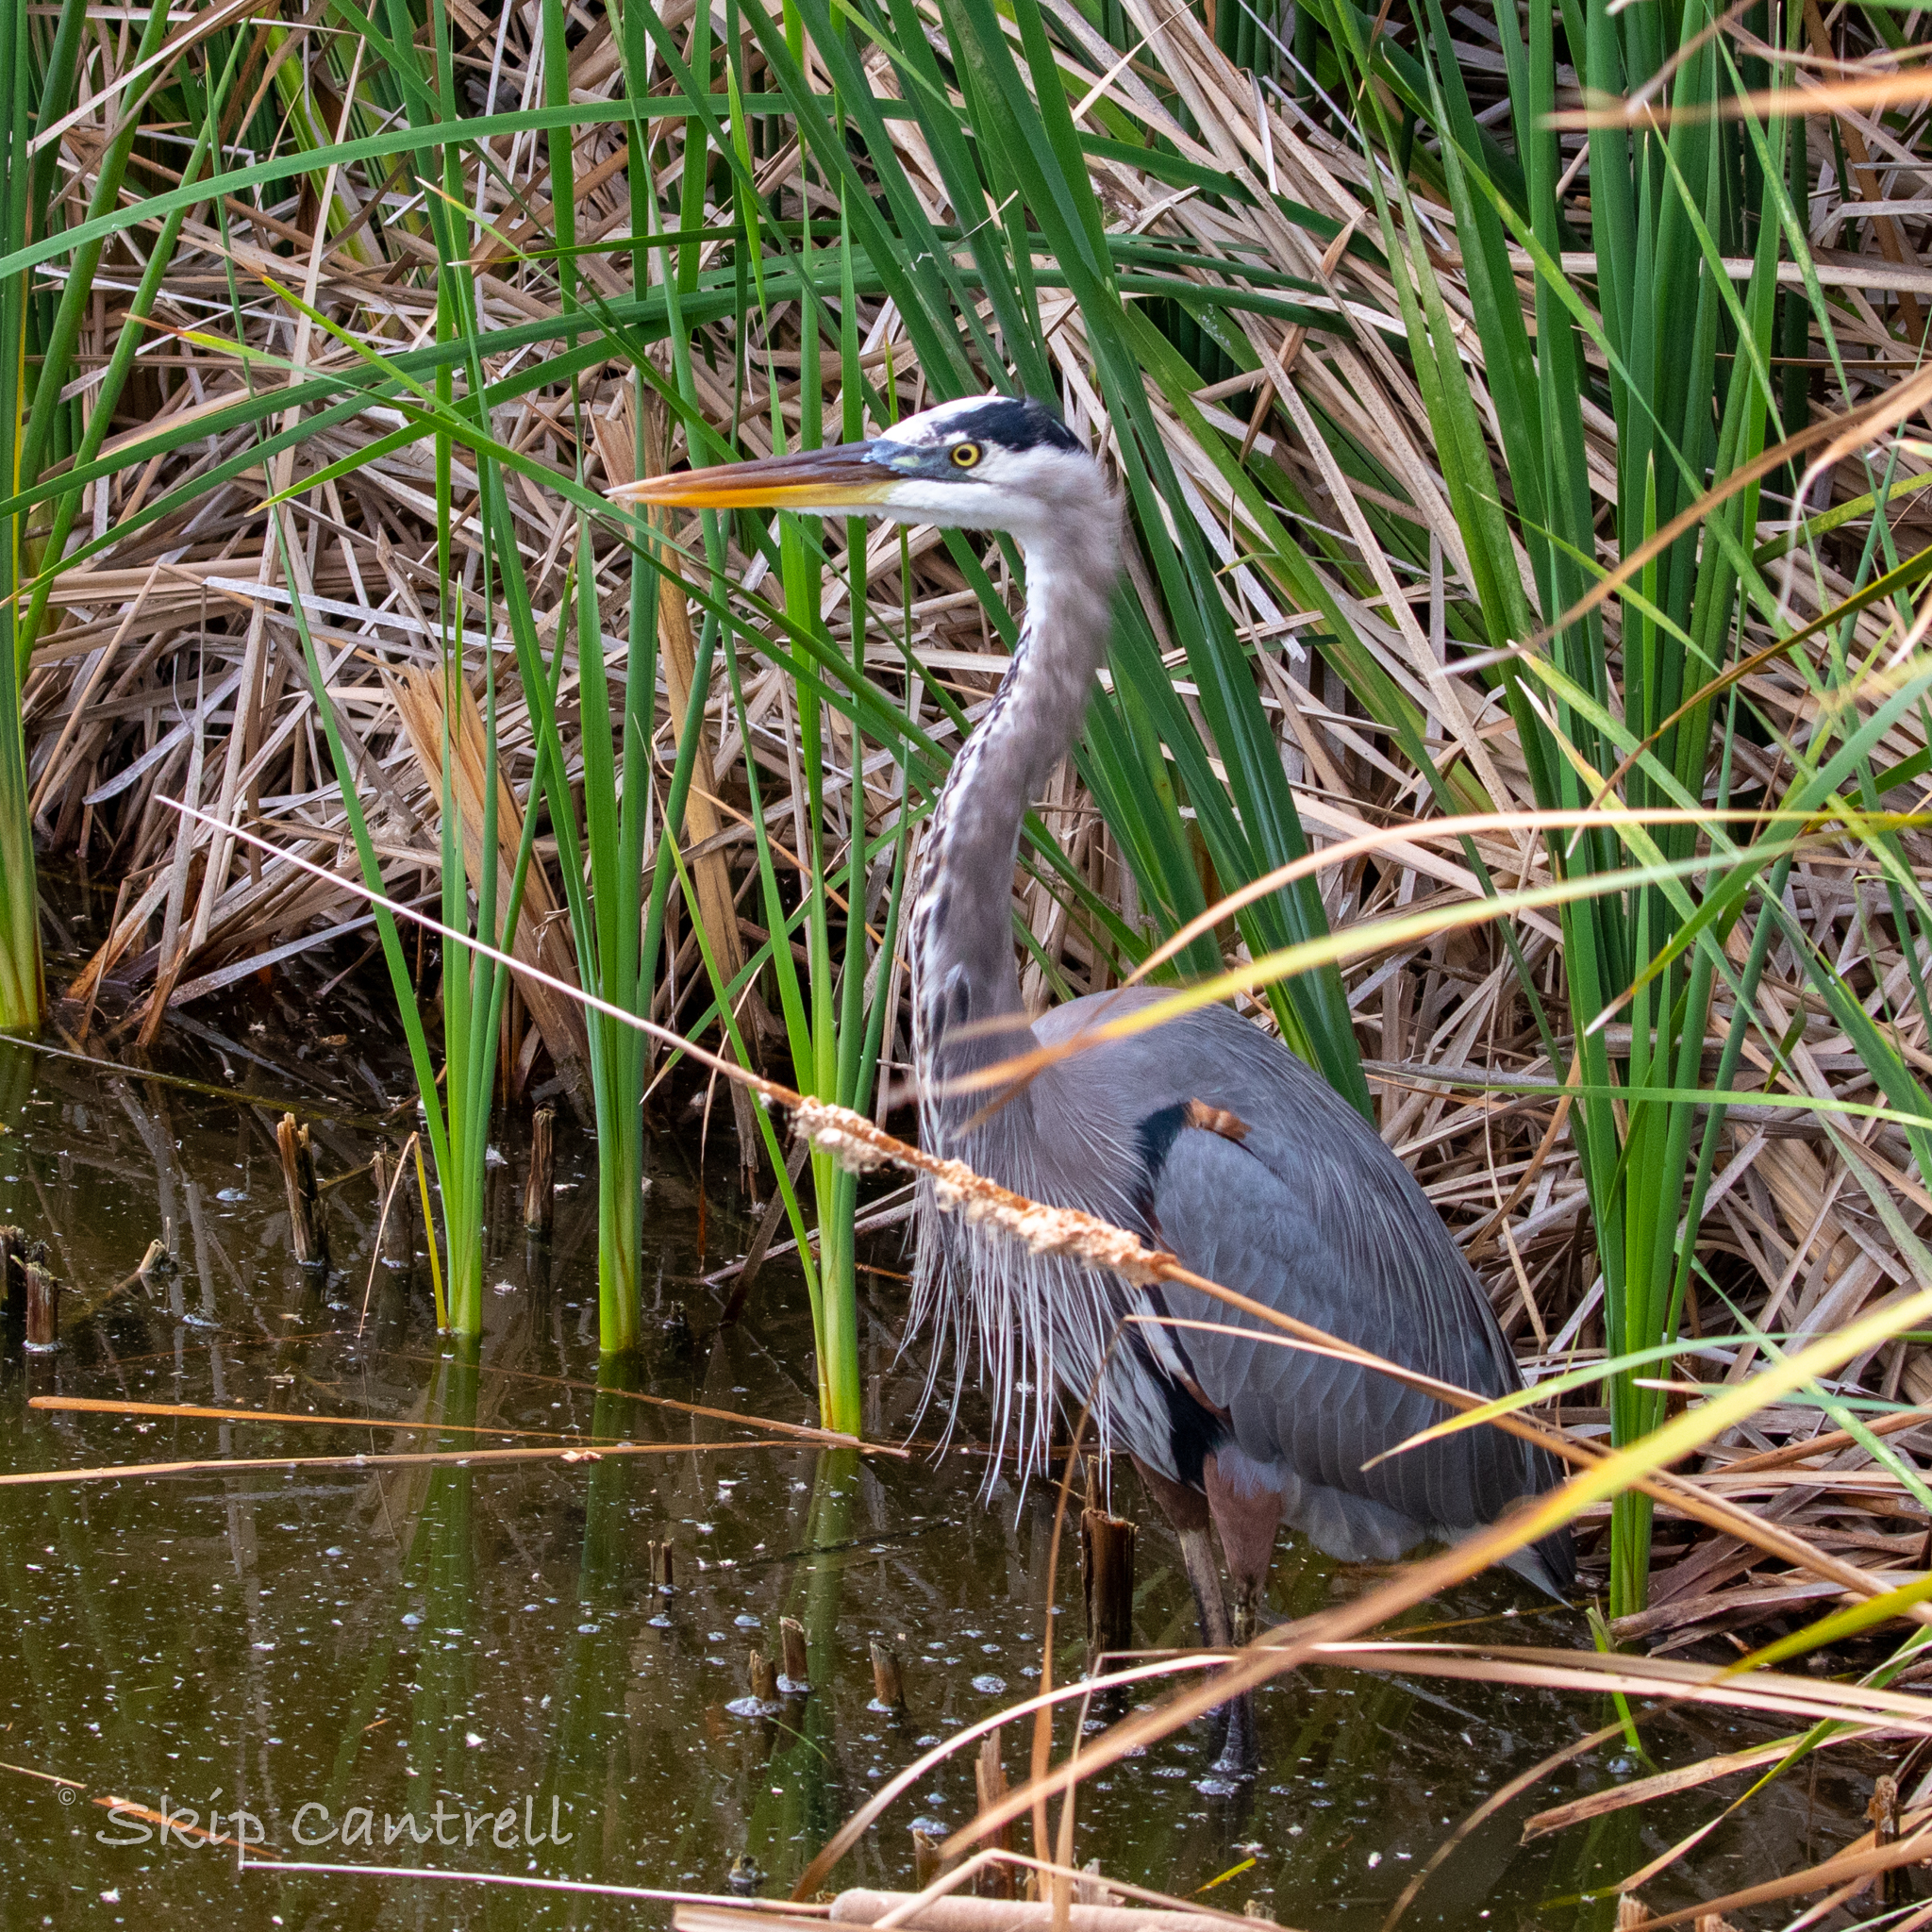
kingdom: Animalia
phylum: Chordata
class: Aves
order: Pelecaniformes
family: Ardeidae
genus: Ardea
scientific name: Ardea herodias
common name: Great blue heron
